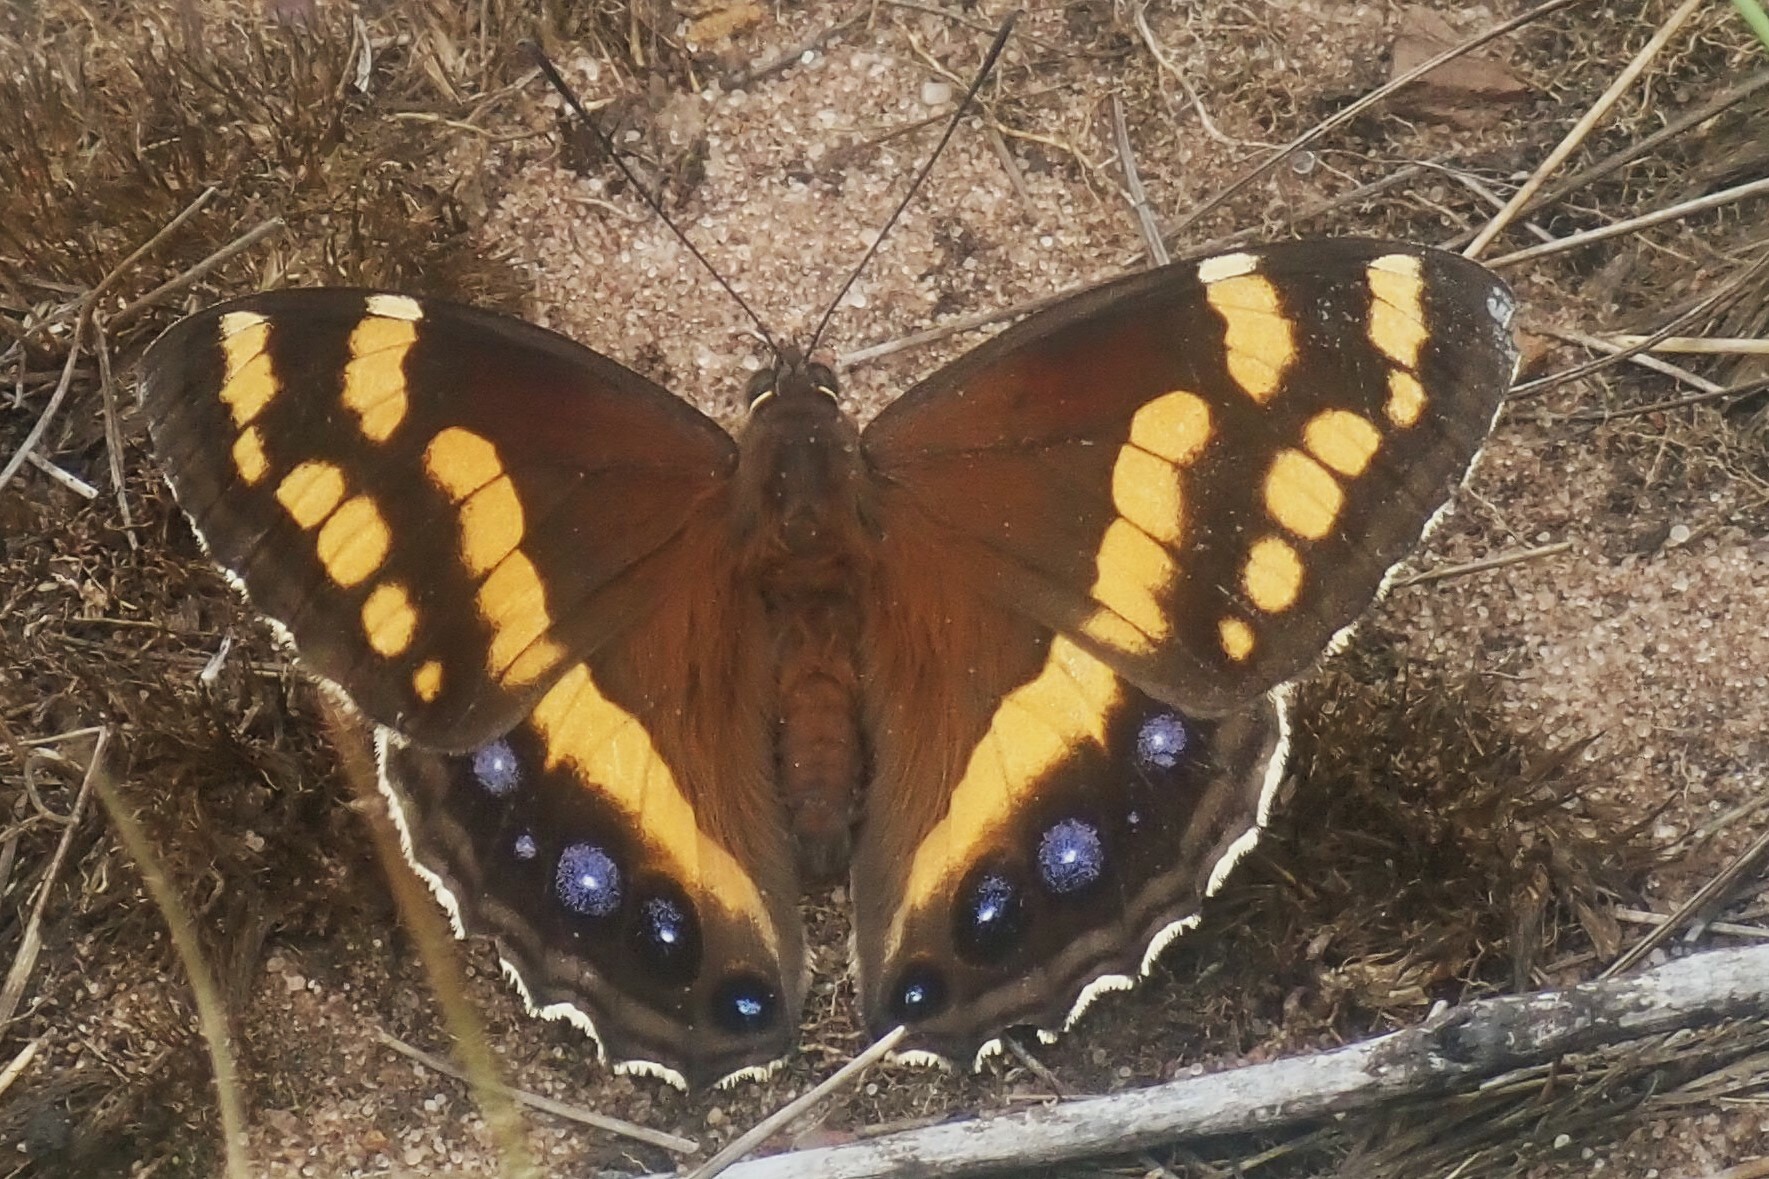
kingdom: Animalia
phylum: Arthropoda
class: Insecta
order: Lepidoptera
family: Nymphalidae
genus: Meneris
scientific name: Meneris Aeropetes tulbaghia
